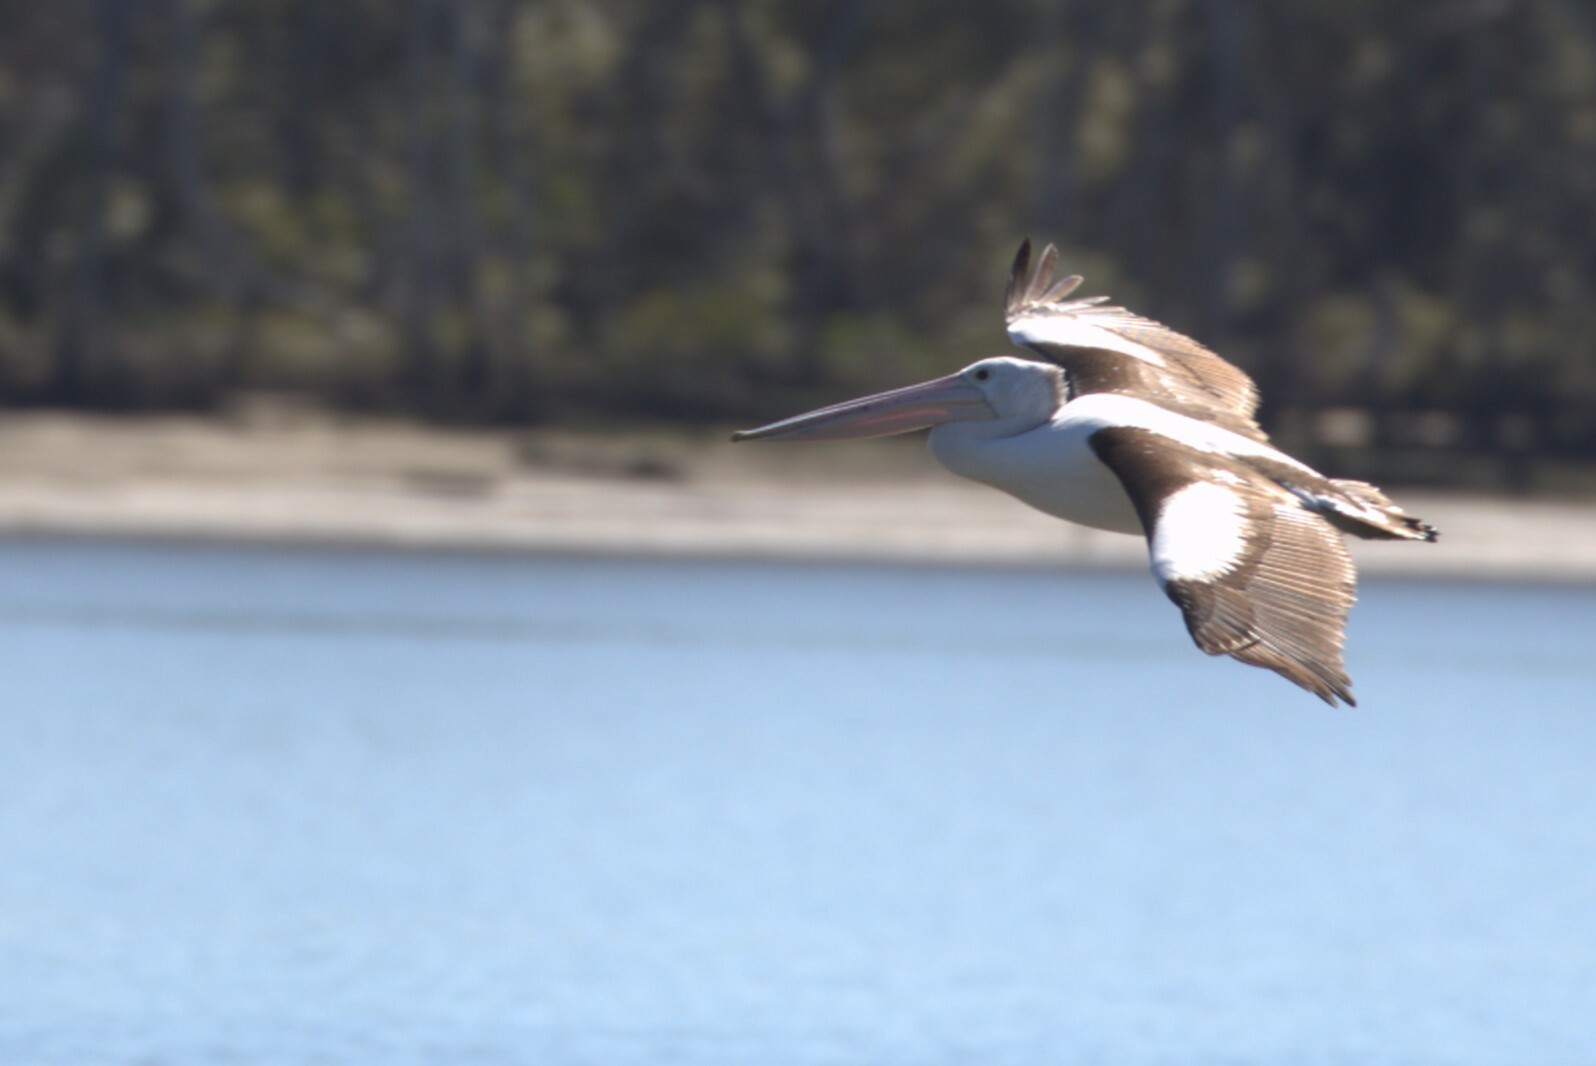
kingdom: Animalia
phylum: Chordata
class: Aves
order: Pelecaniformes
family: Pelecanidae
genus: Pelecanus
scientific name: Pelecanus conspicillatus
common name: Australian pelican
